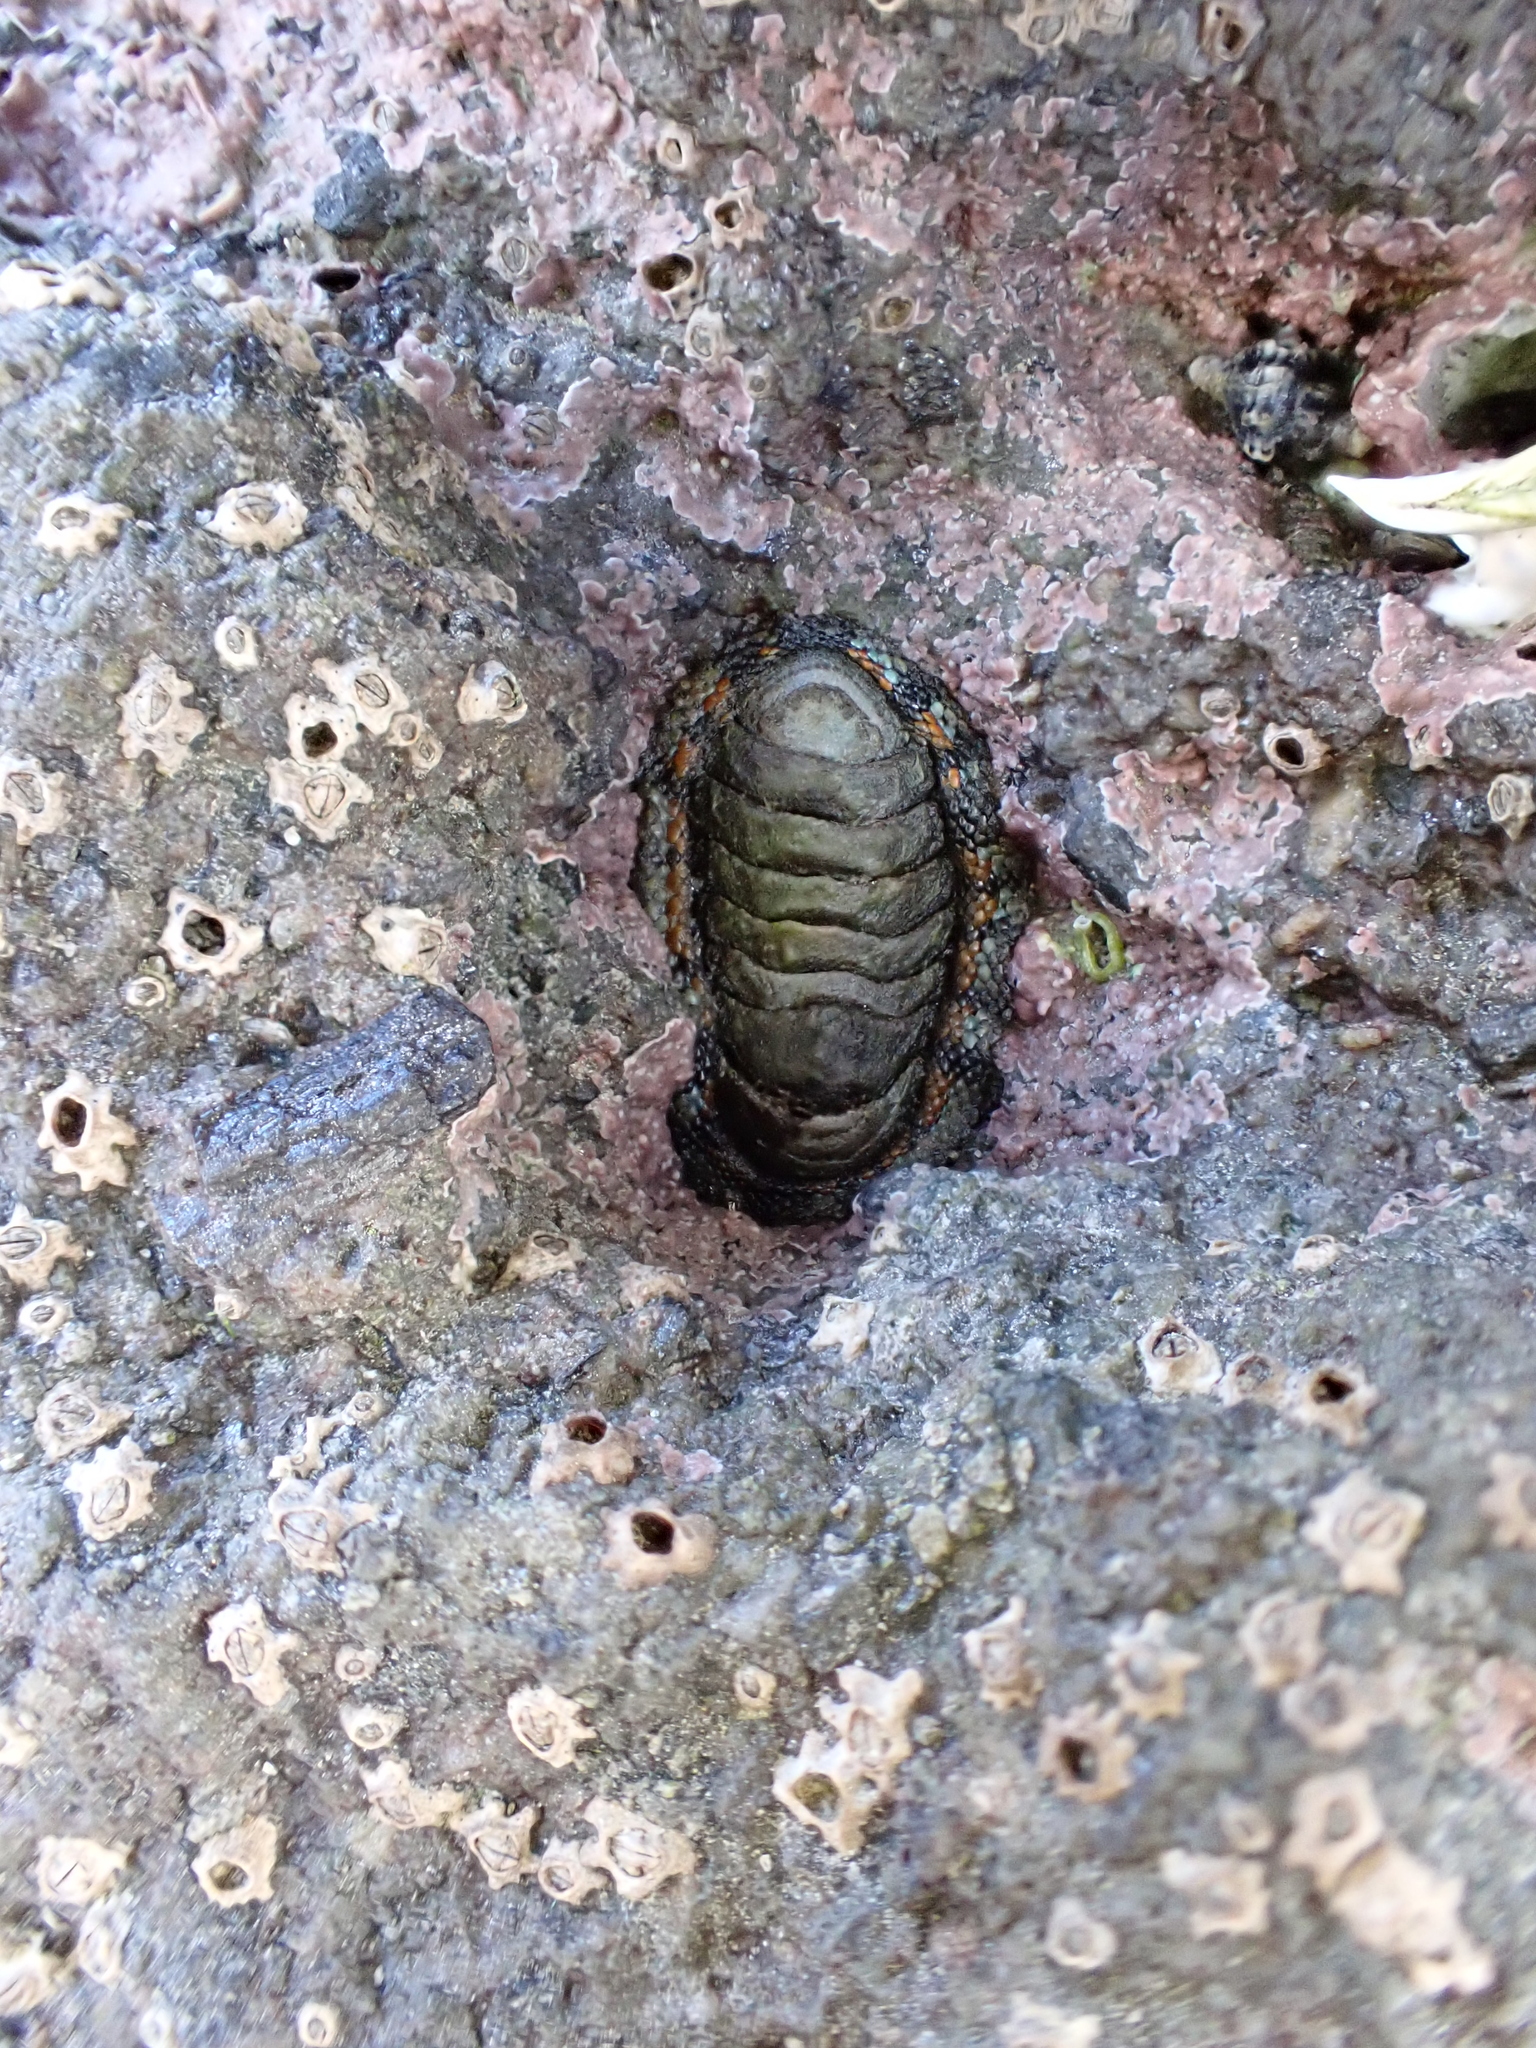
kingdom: Animalia
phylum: Mollusca
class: Polyplacophora
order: Chitonida
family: Chitonidae
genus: Sypharochiton
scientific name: Sypharochiton sinclairi
